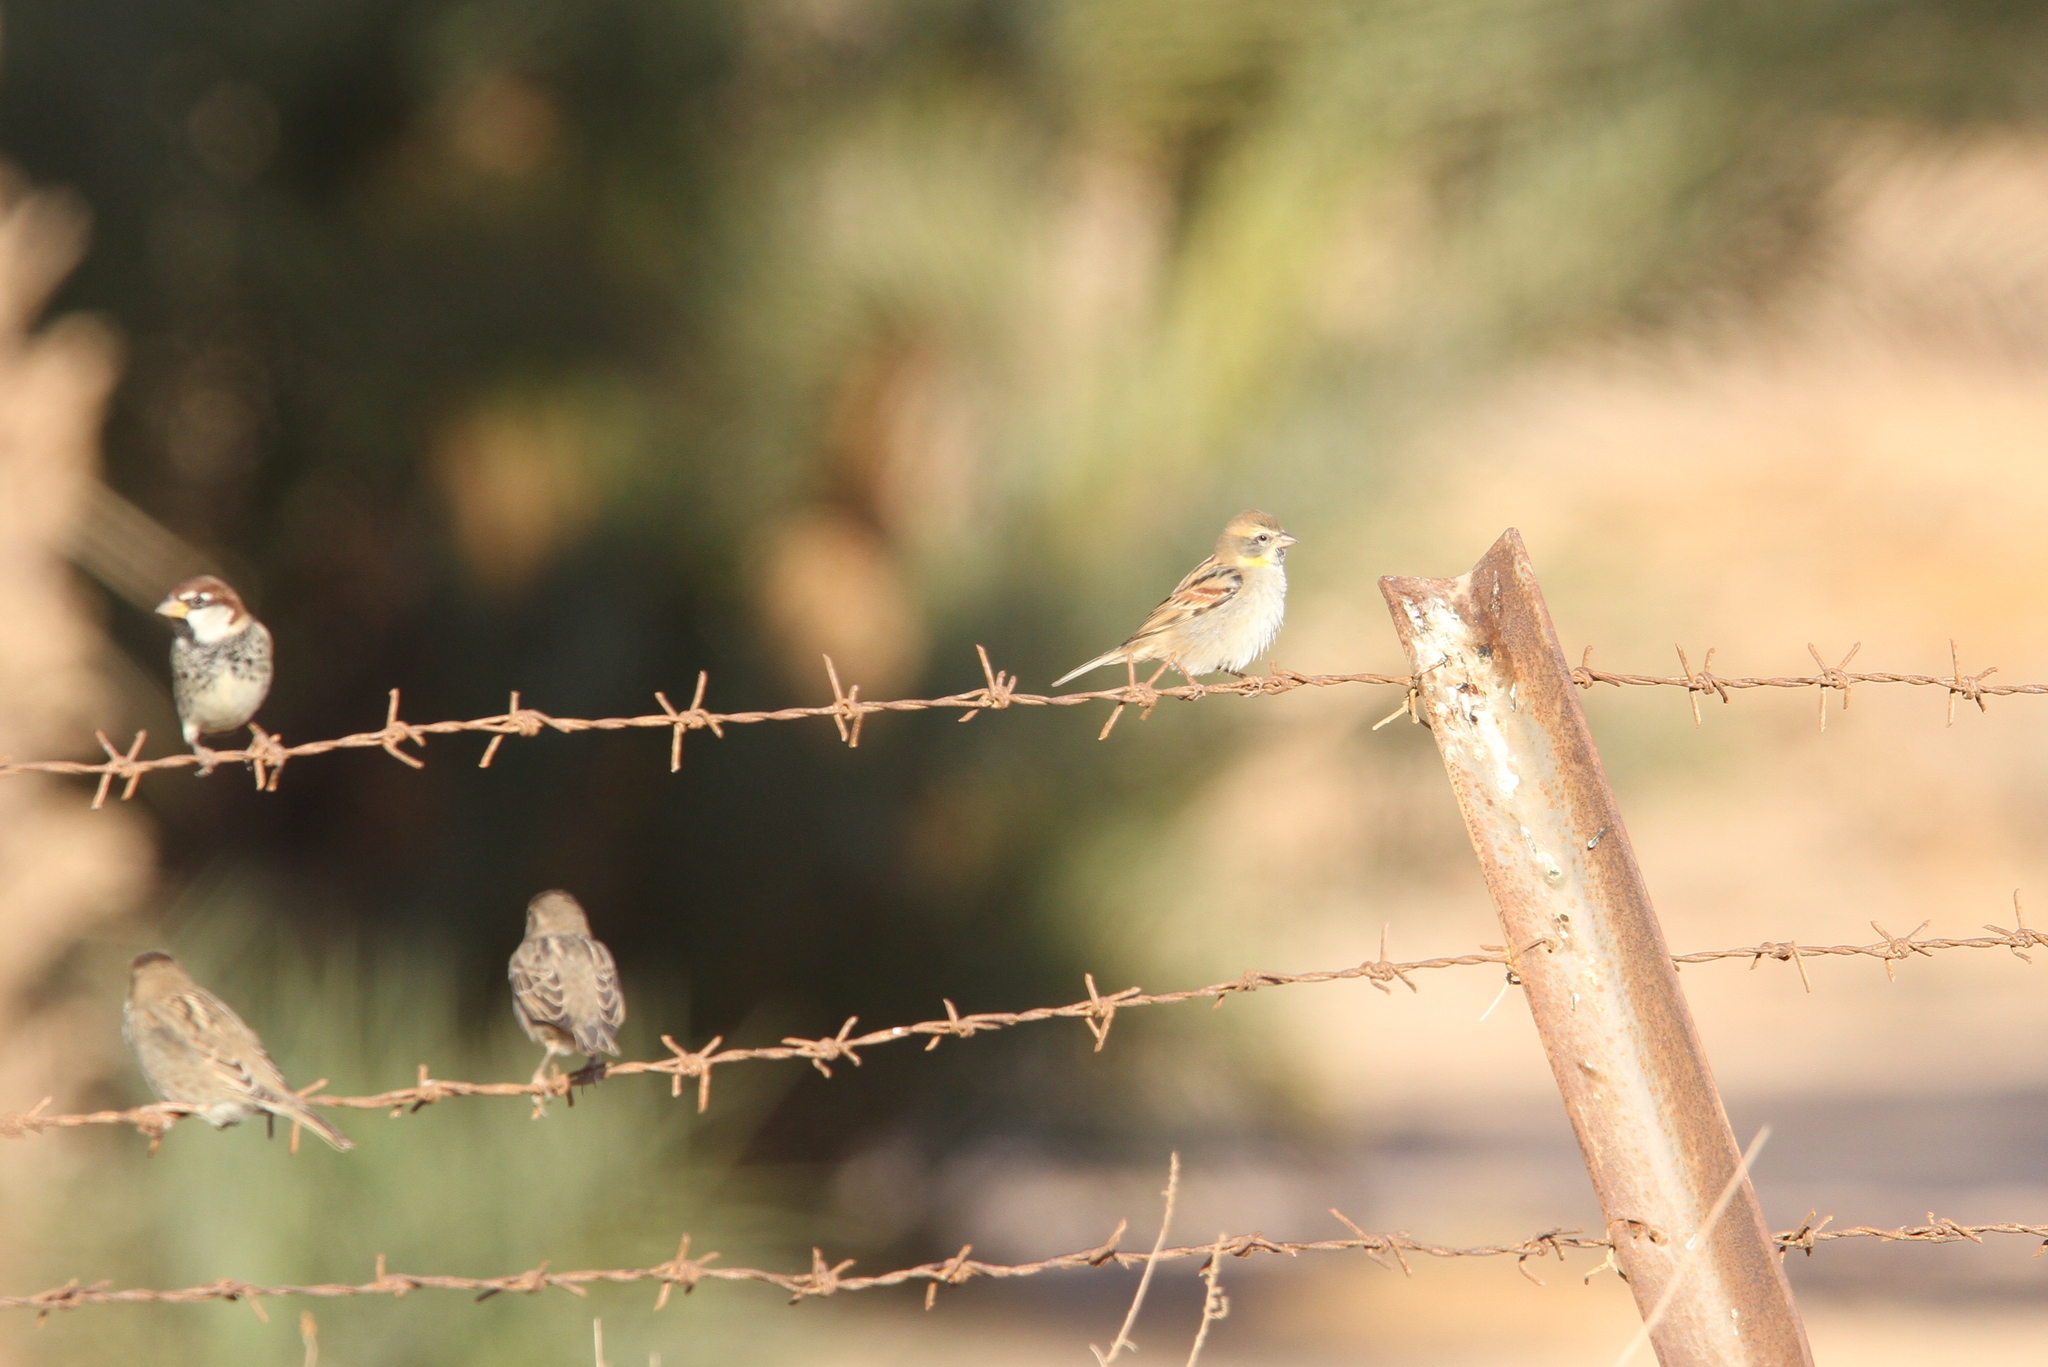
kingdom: Animalia
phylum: Chordata
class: Aves
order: Passeriformes
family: Passeridae
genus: Passer
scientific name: Passer moabiticus
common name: Dead sea sparrow
